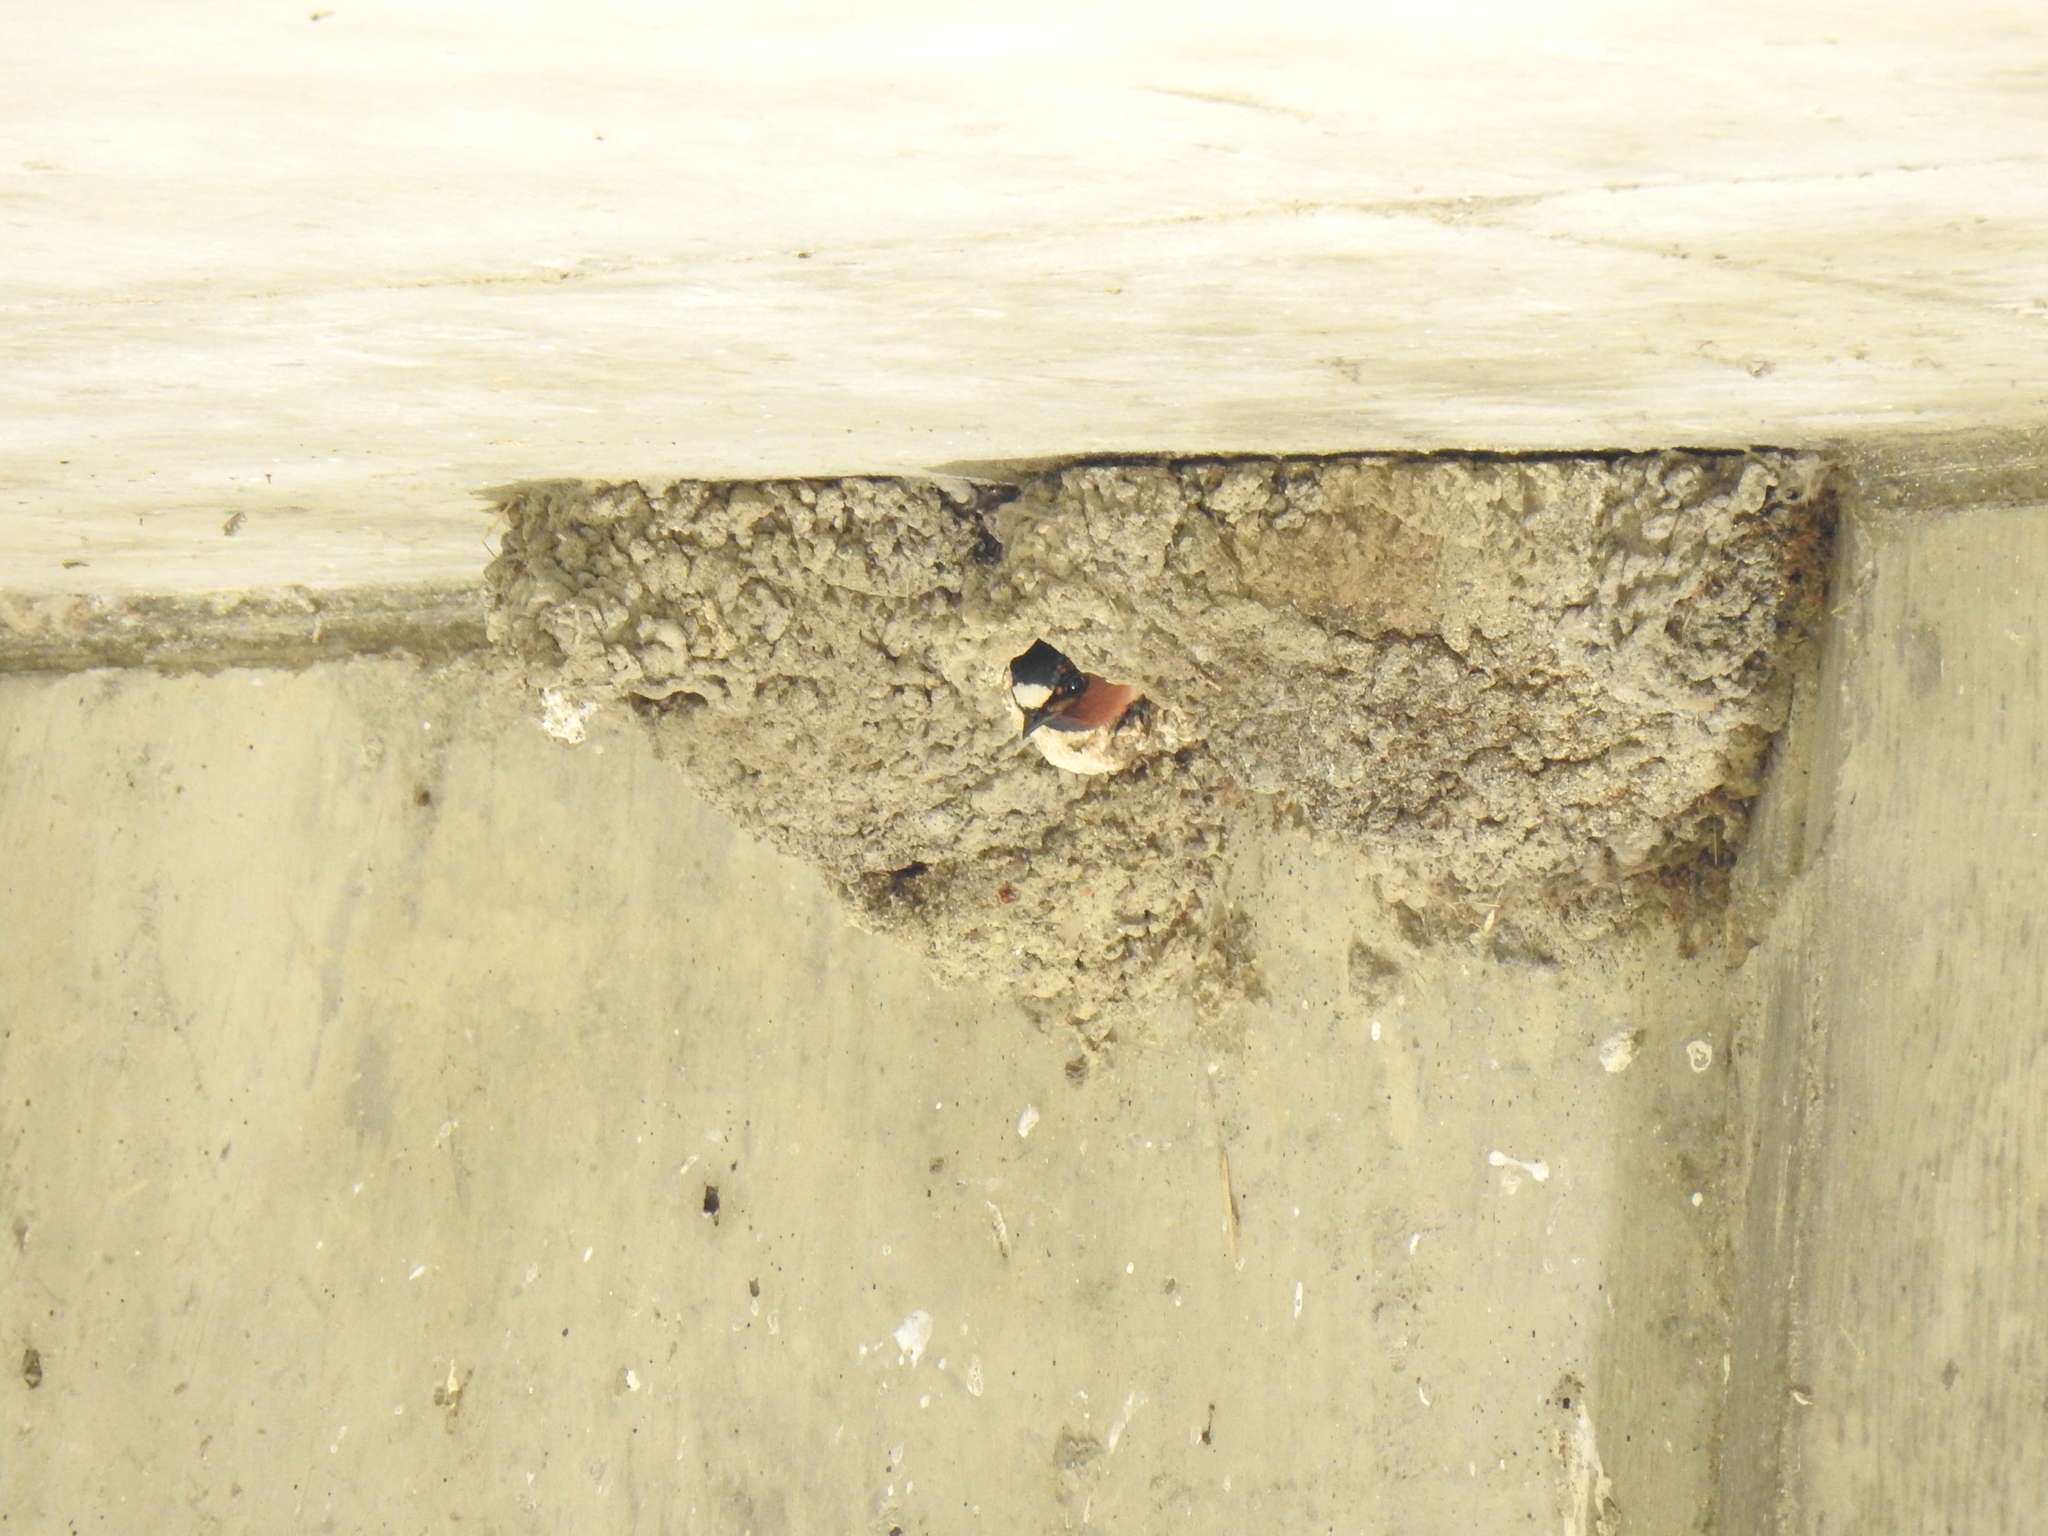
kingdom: Animalia
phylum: Chordata
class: Aves
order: Passeriformes
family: Hirundinidae
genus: Petrochelidon
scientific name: Petrochelidon pyrrhonota
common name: American cliff swallow
